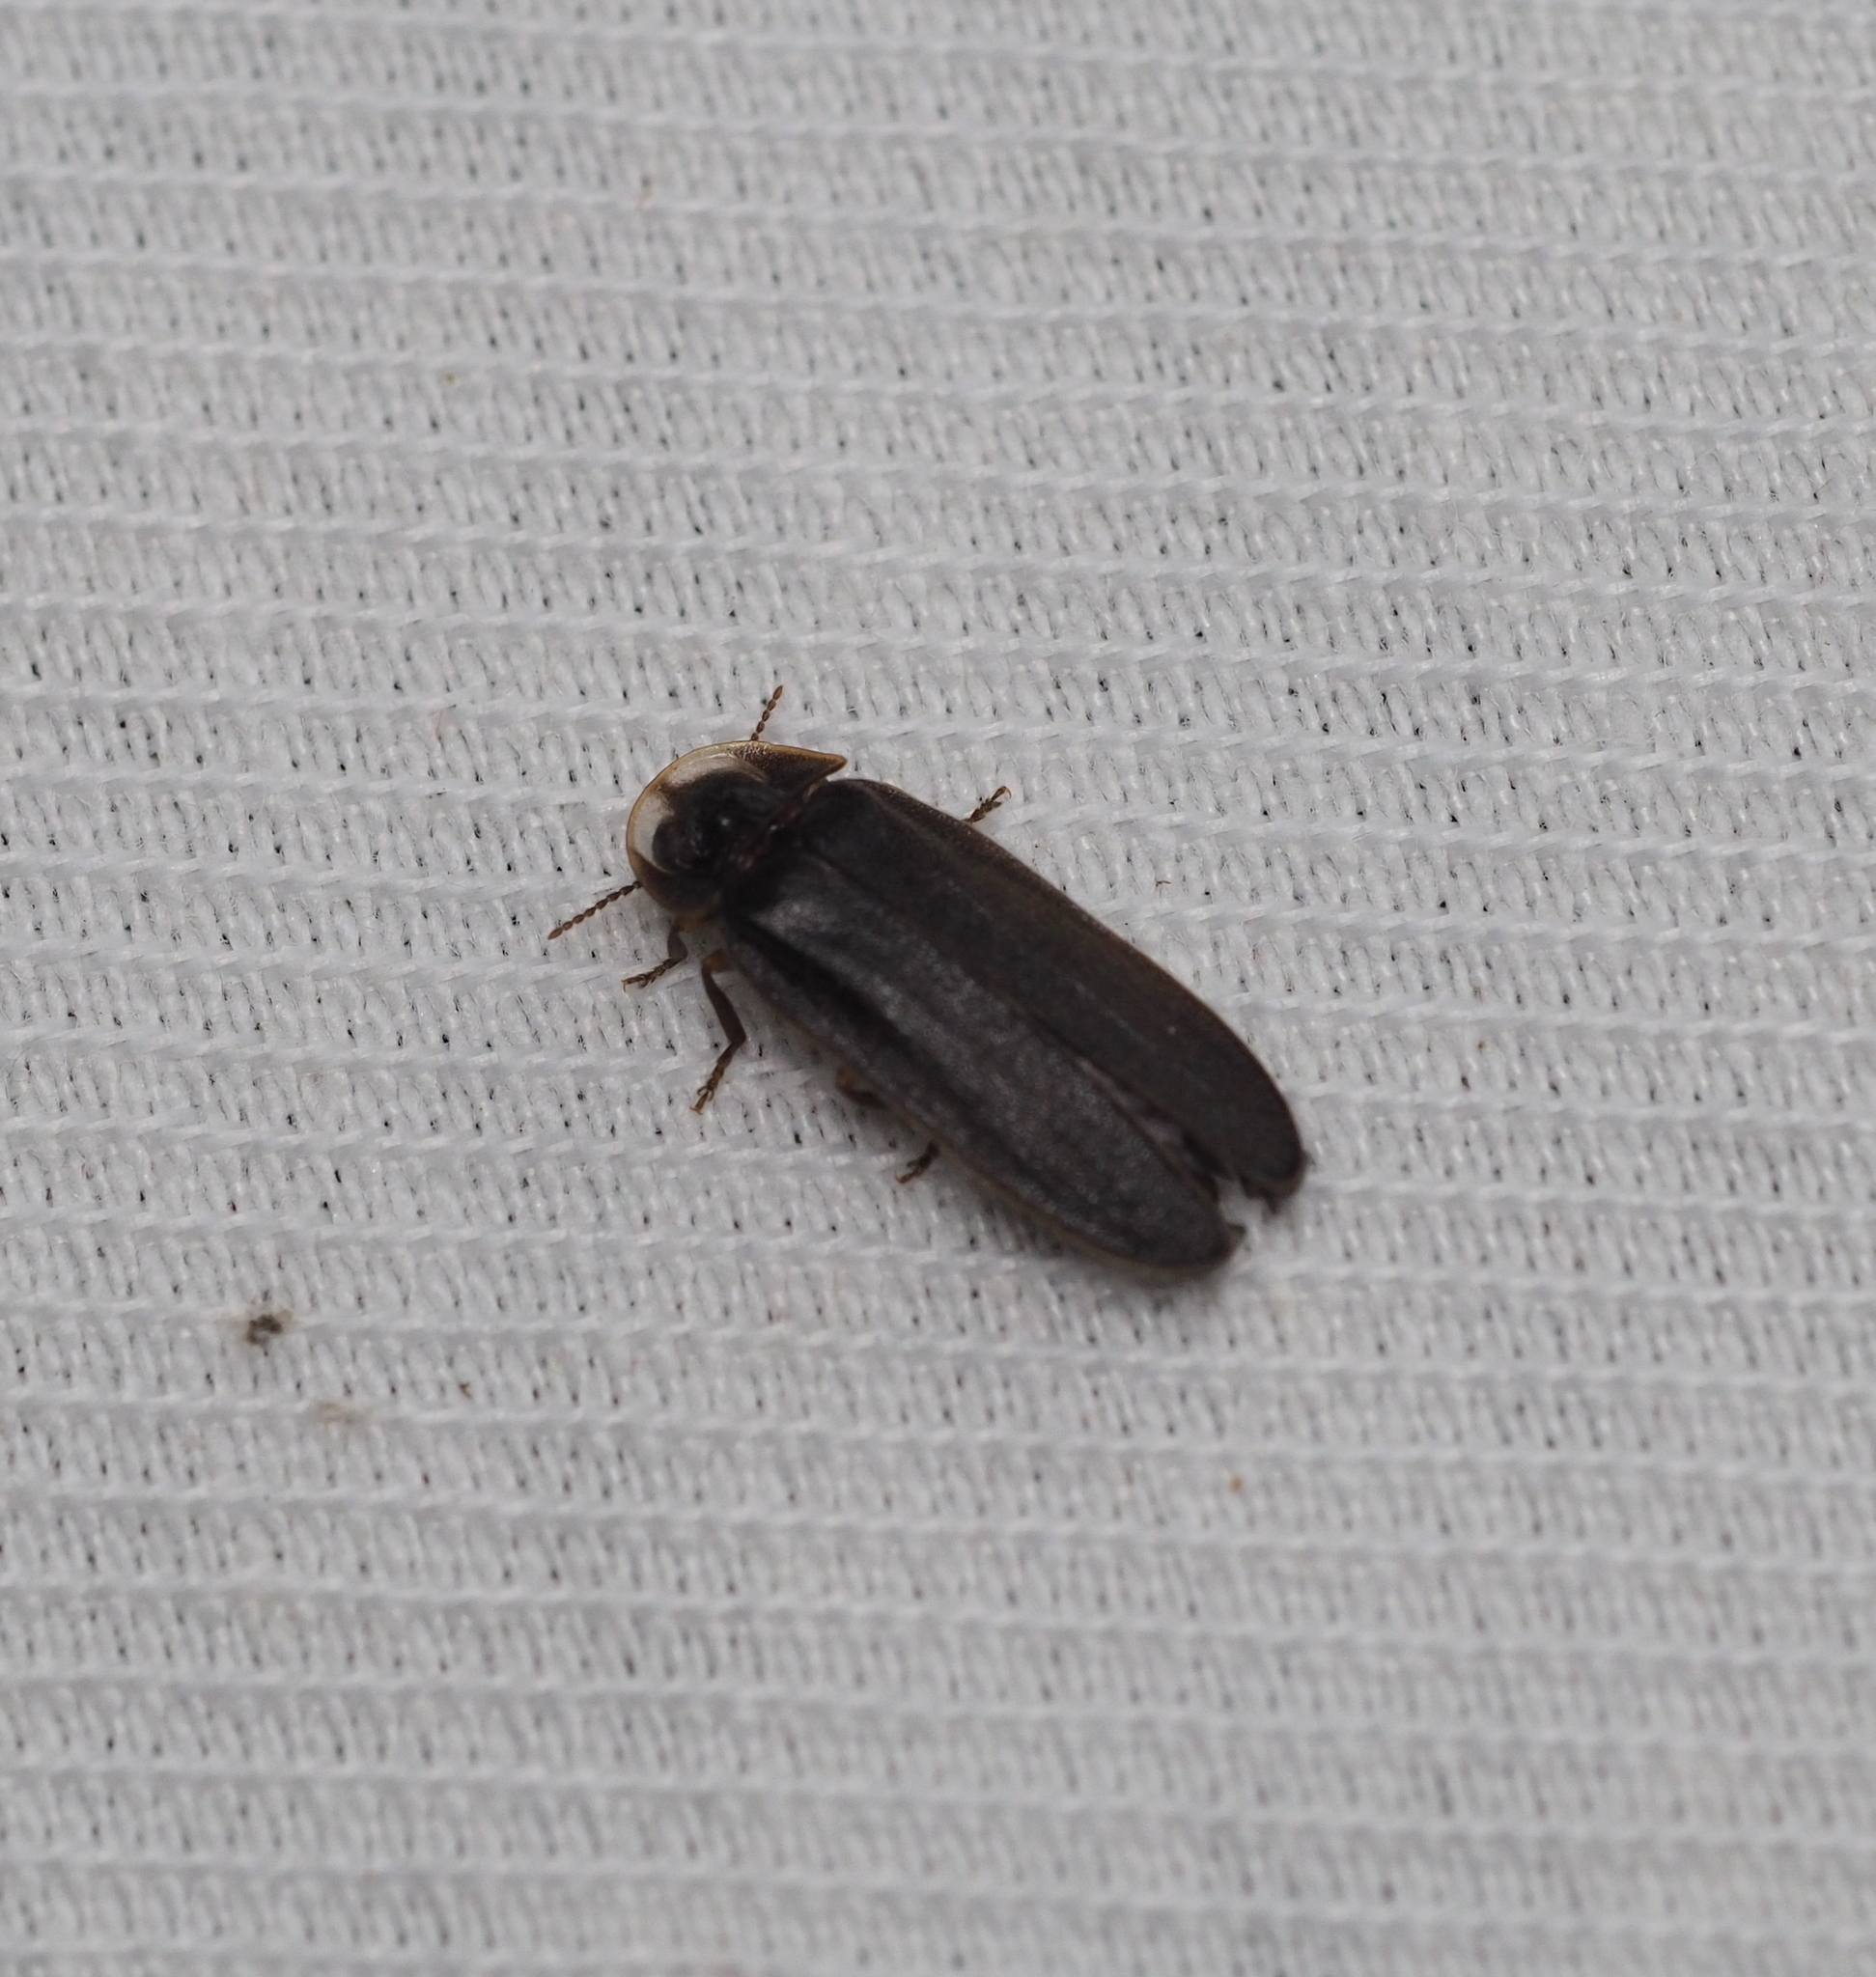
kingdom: Animalia
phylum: Arthropoda
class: Insecta
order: Coleoptera
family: Lampyridae
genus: Lamprohiza
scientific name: Lamprohiza splendidula
